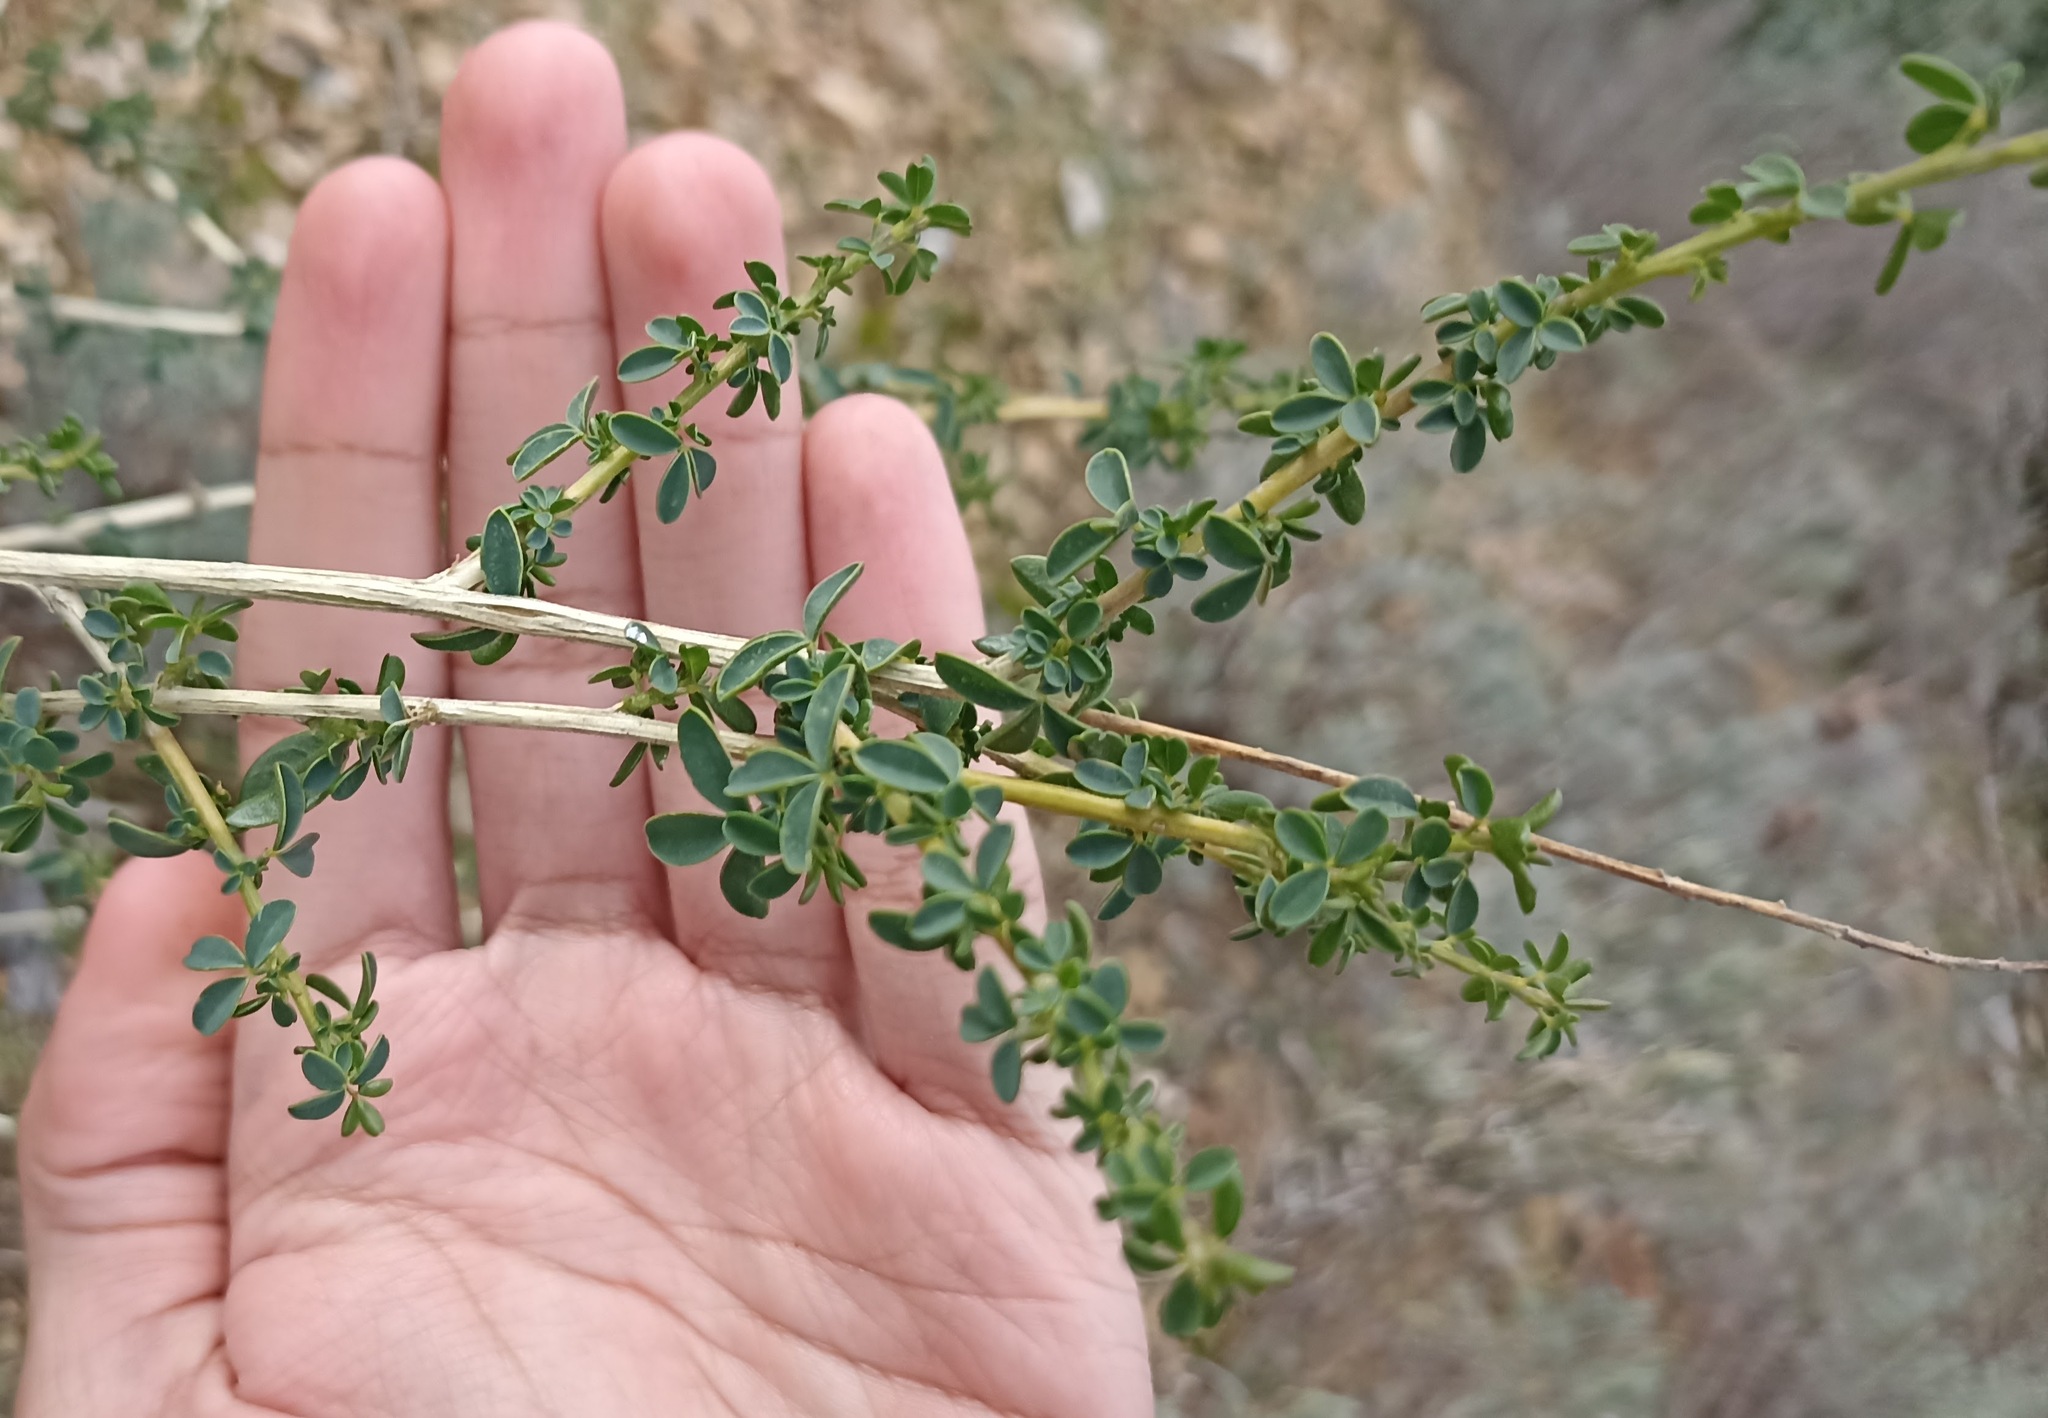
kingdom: Plantae
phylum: Tracheophyta
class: Magnoliopsida
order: Fabales
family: Fabaceae
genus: Adenocarpus
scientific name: Adenocarpus complicatus
